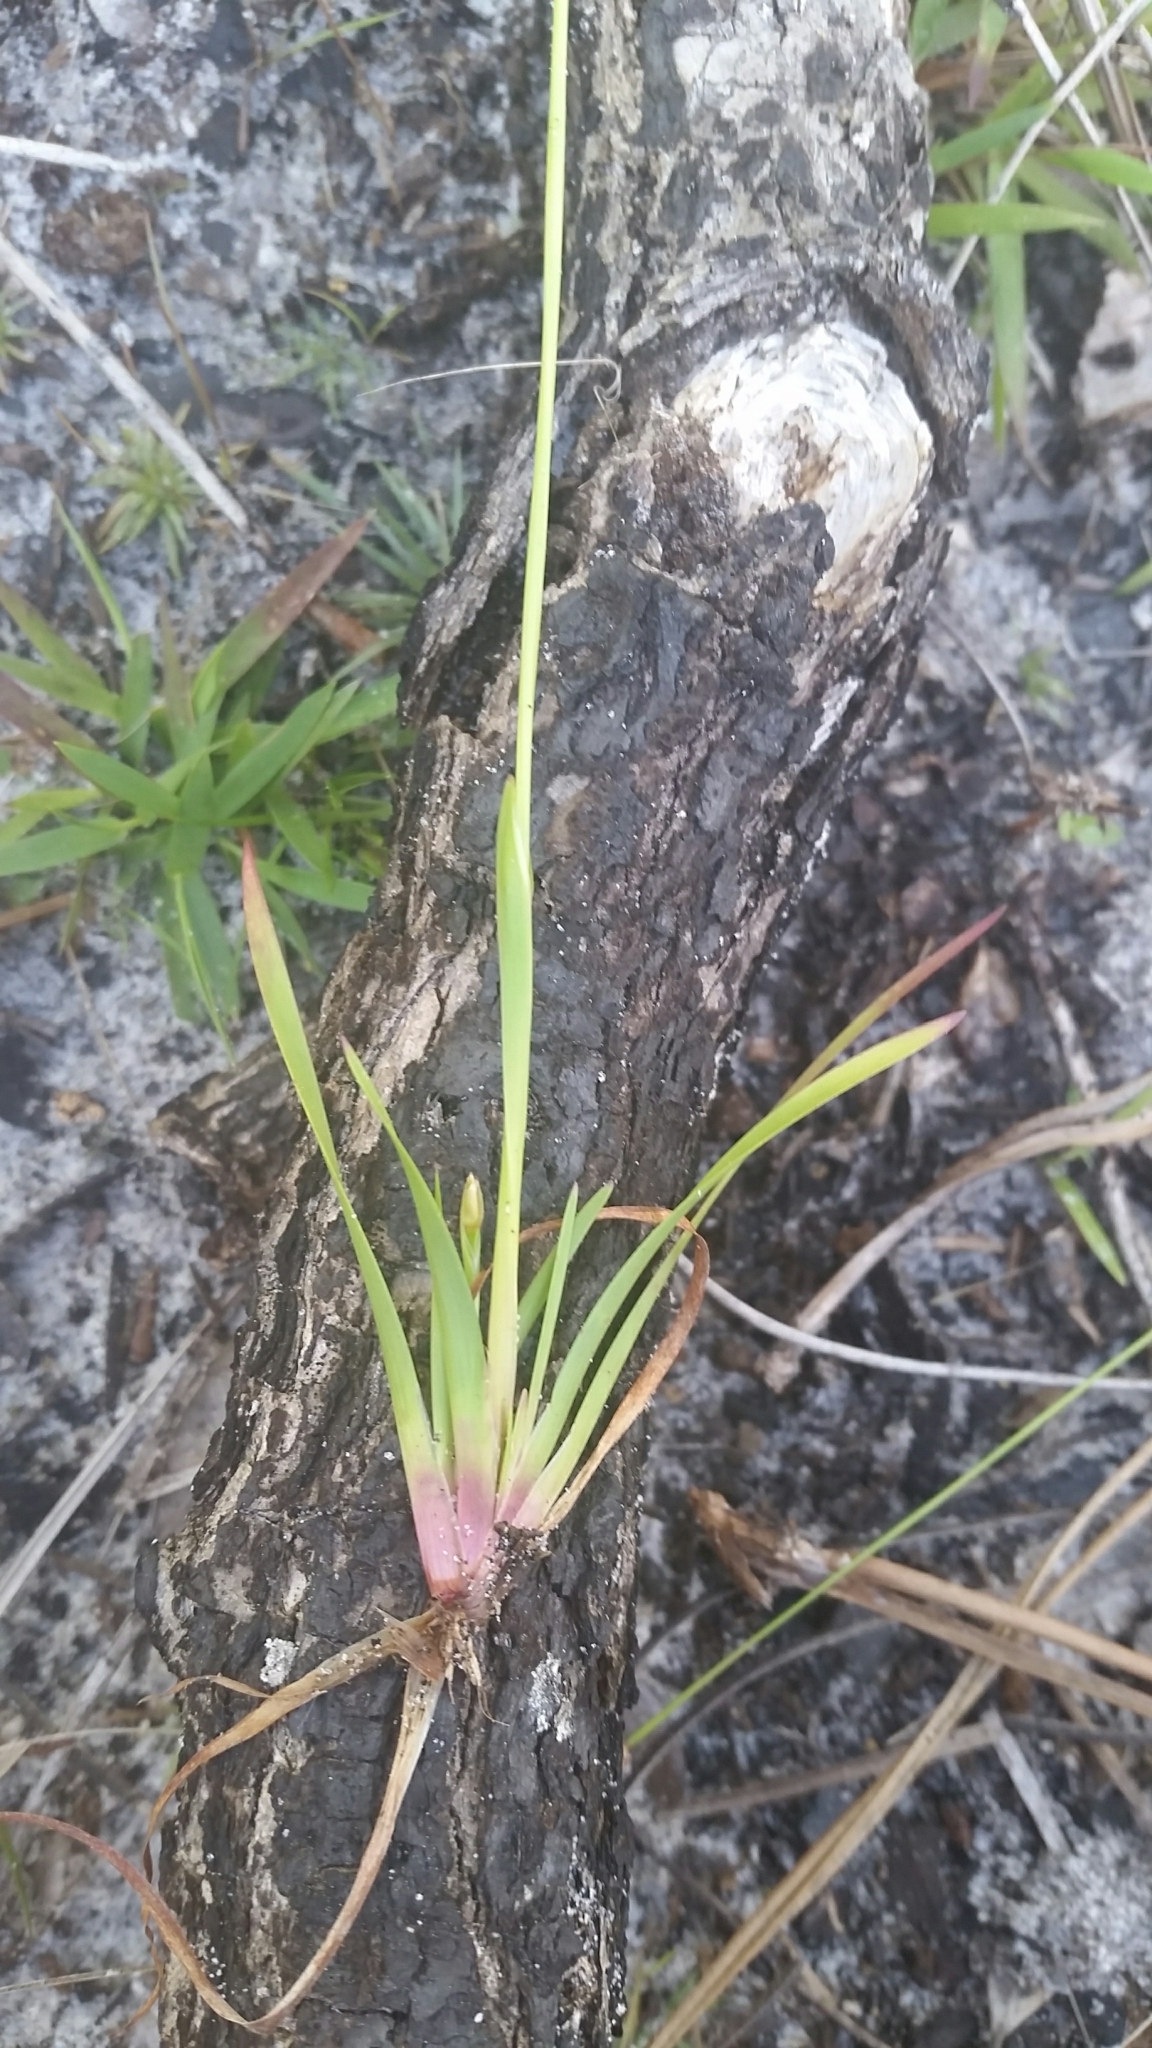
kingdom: Plantae
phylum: Tracheophyta
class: Liliopsida
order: Poales
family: Xyridaceae
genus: Xyris
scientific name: Xyris brevifolia
